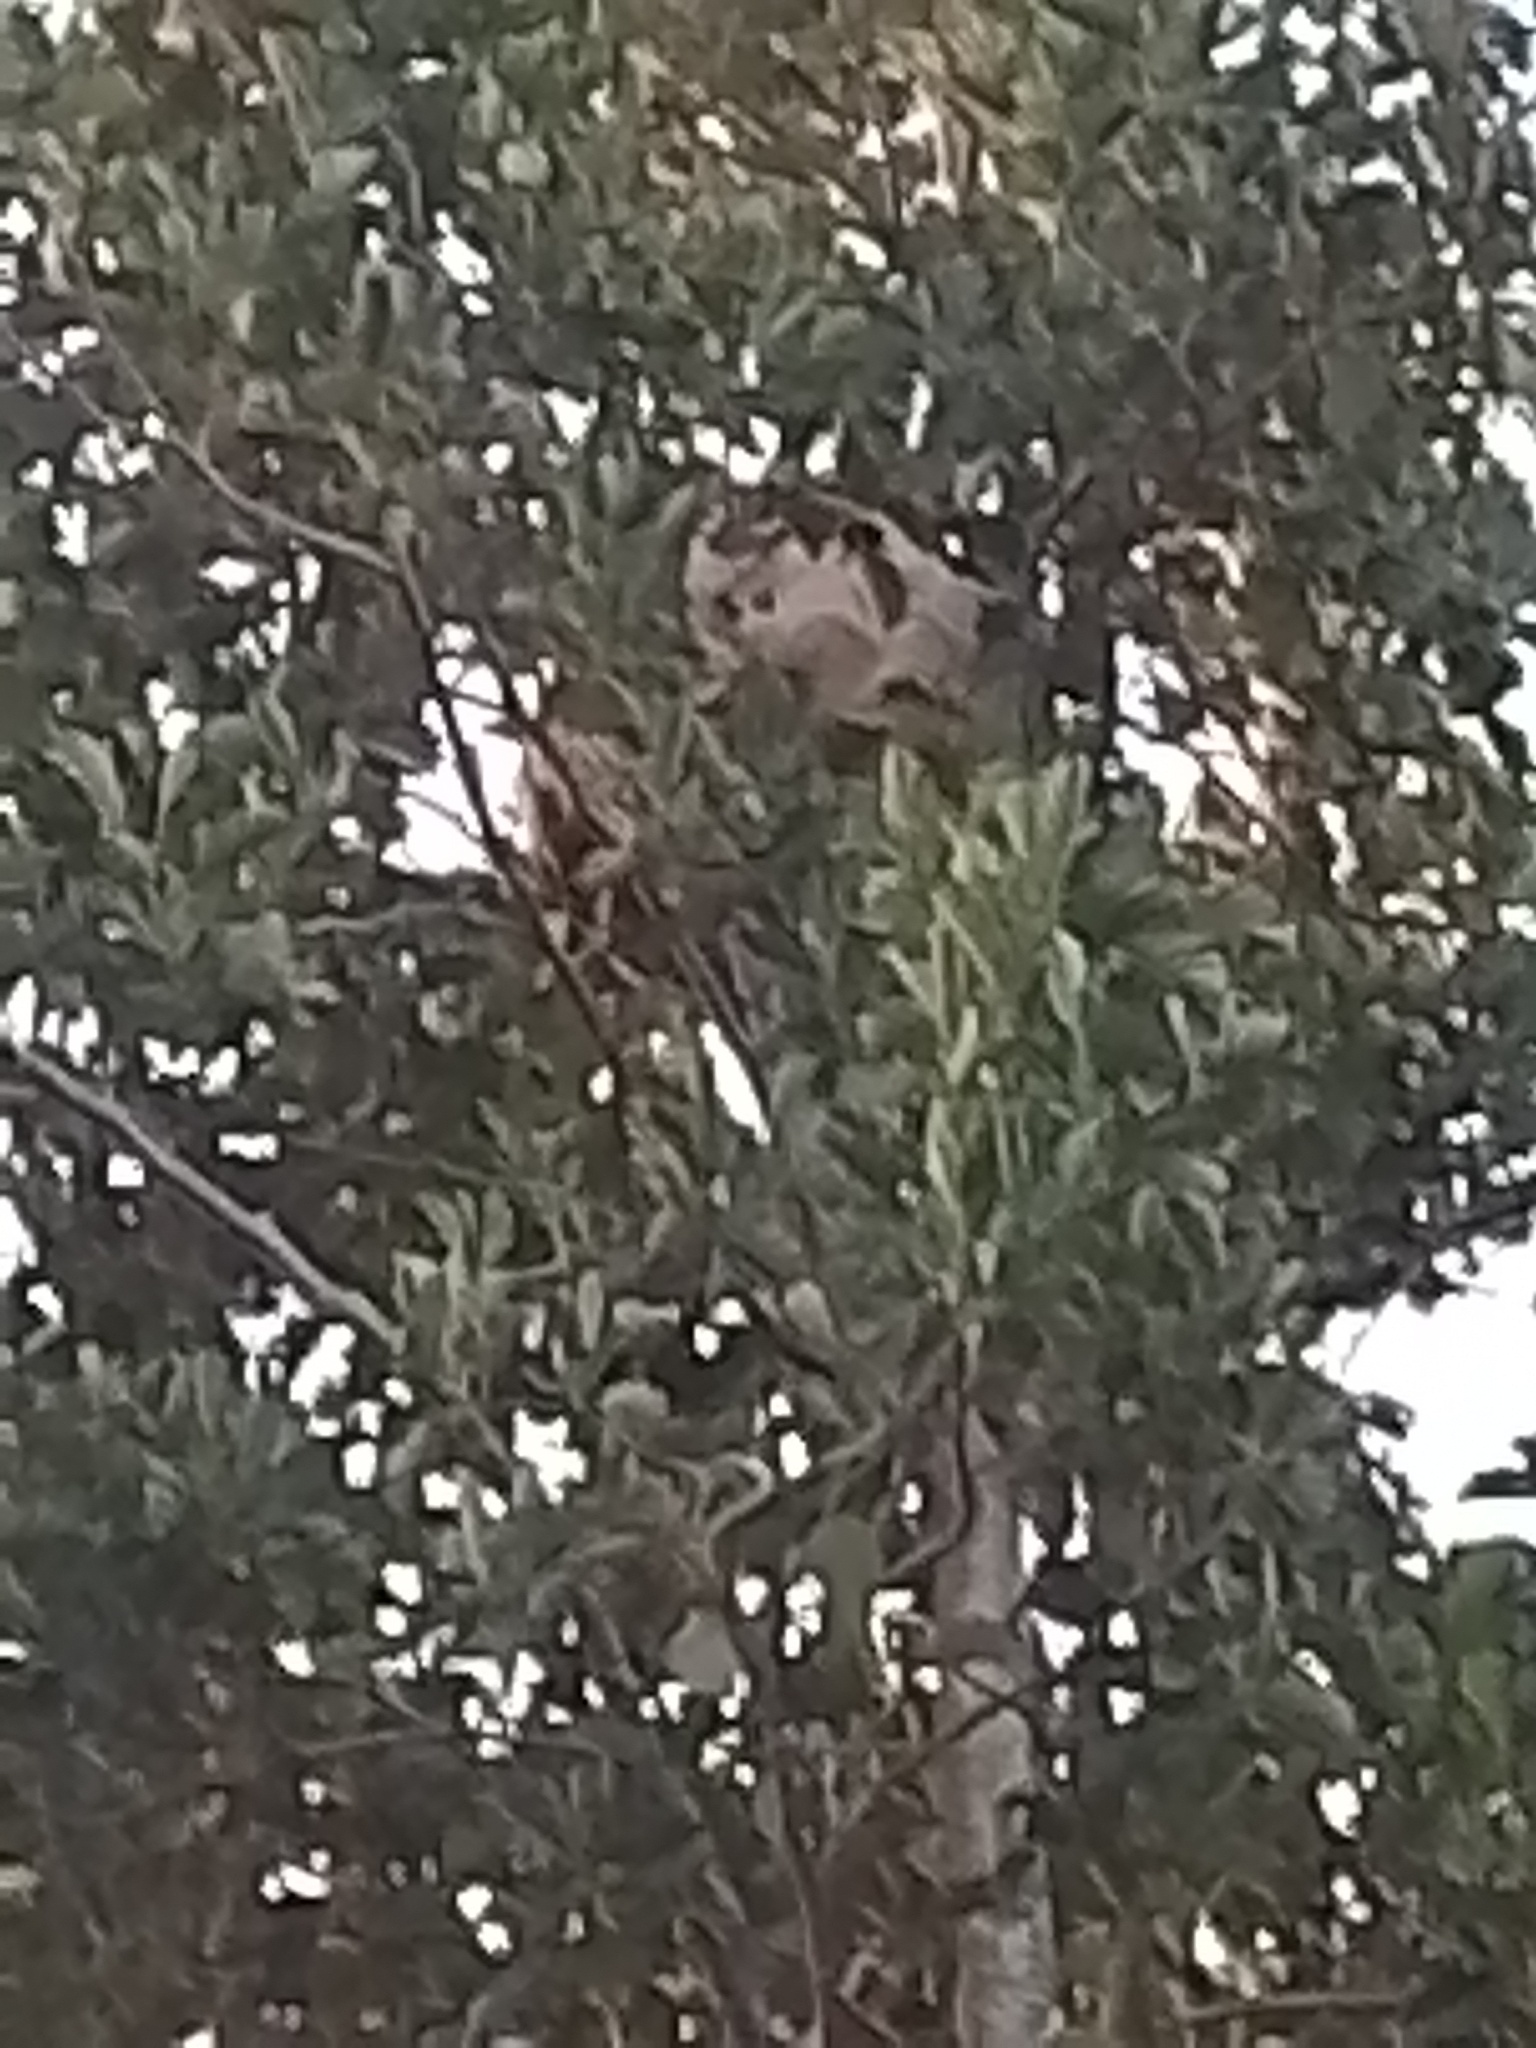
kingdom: Animalia
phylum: Arthropoda
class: Insecta
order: Hymenoptera
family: Vespidae
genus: Vespa
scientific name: Vespa velutina
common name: Asian hornet
